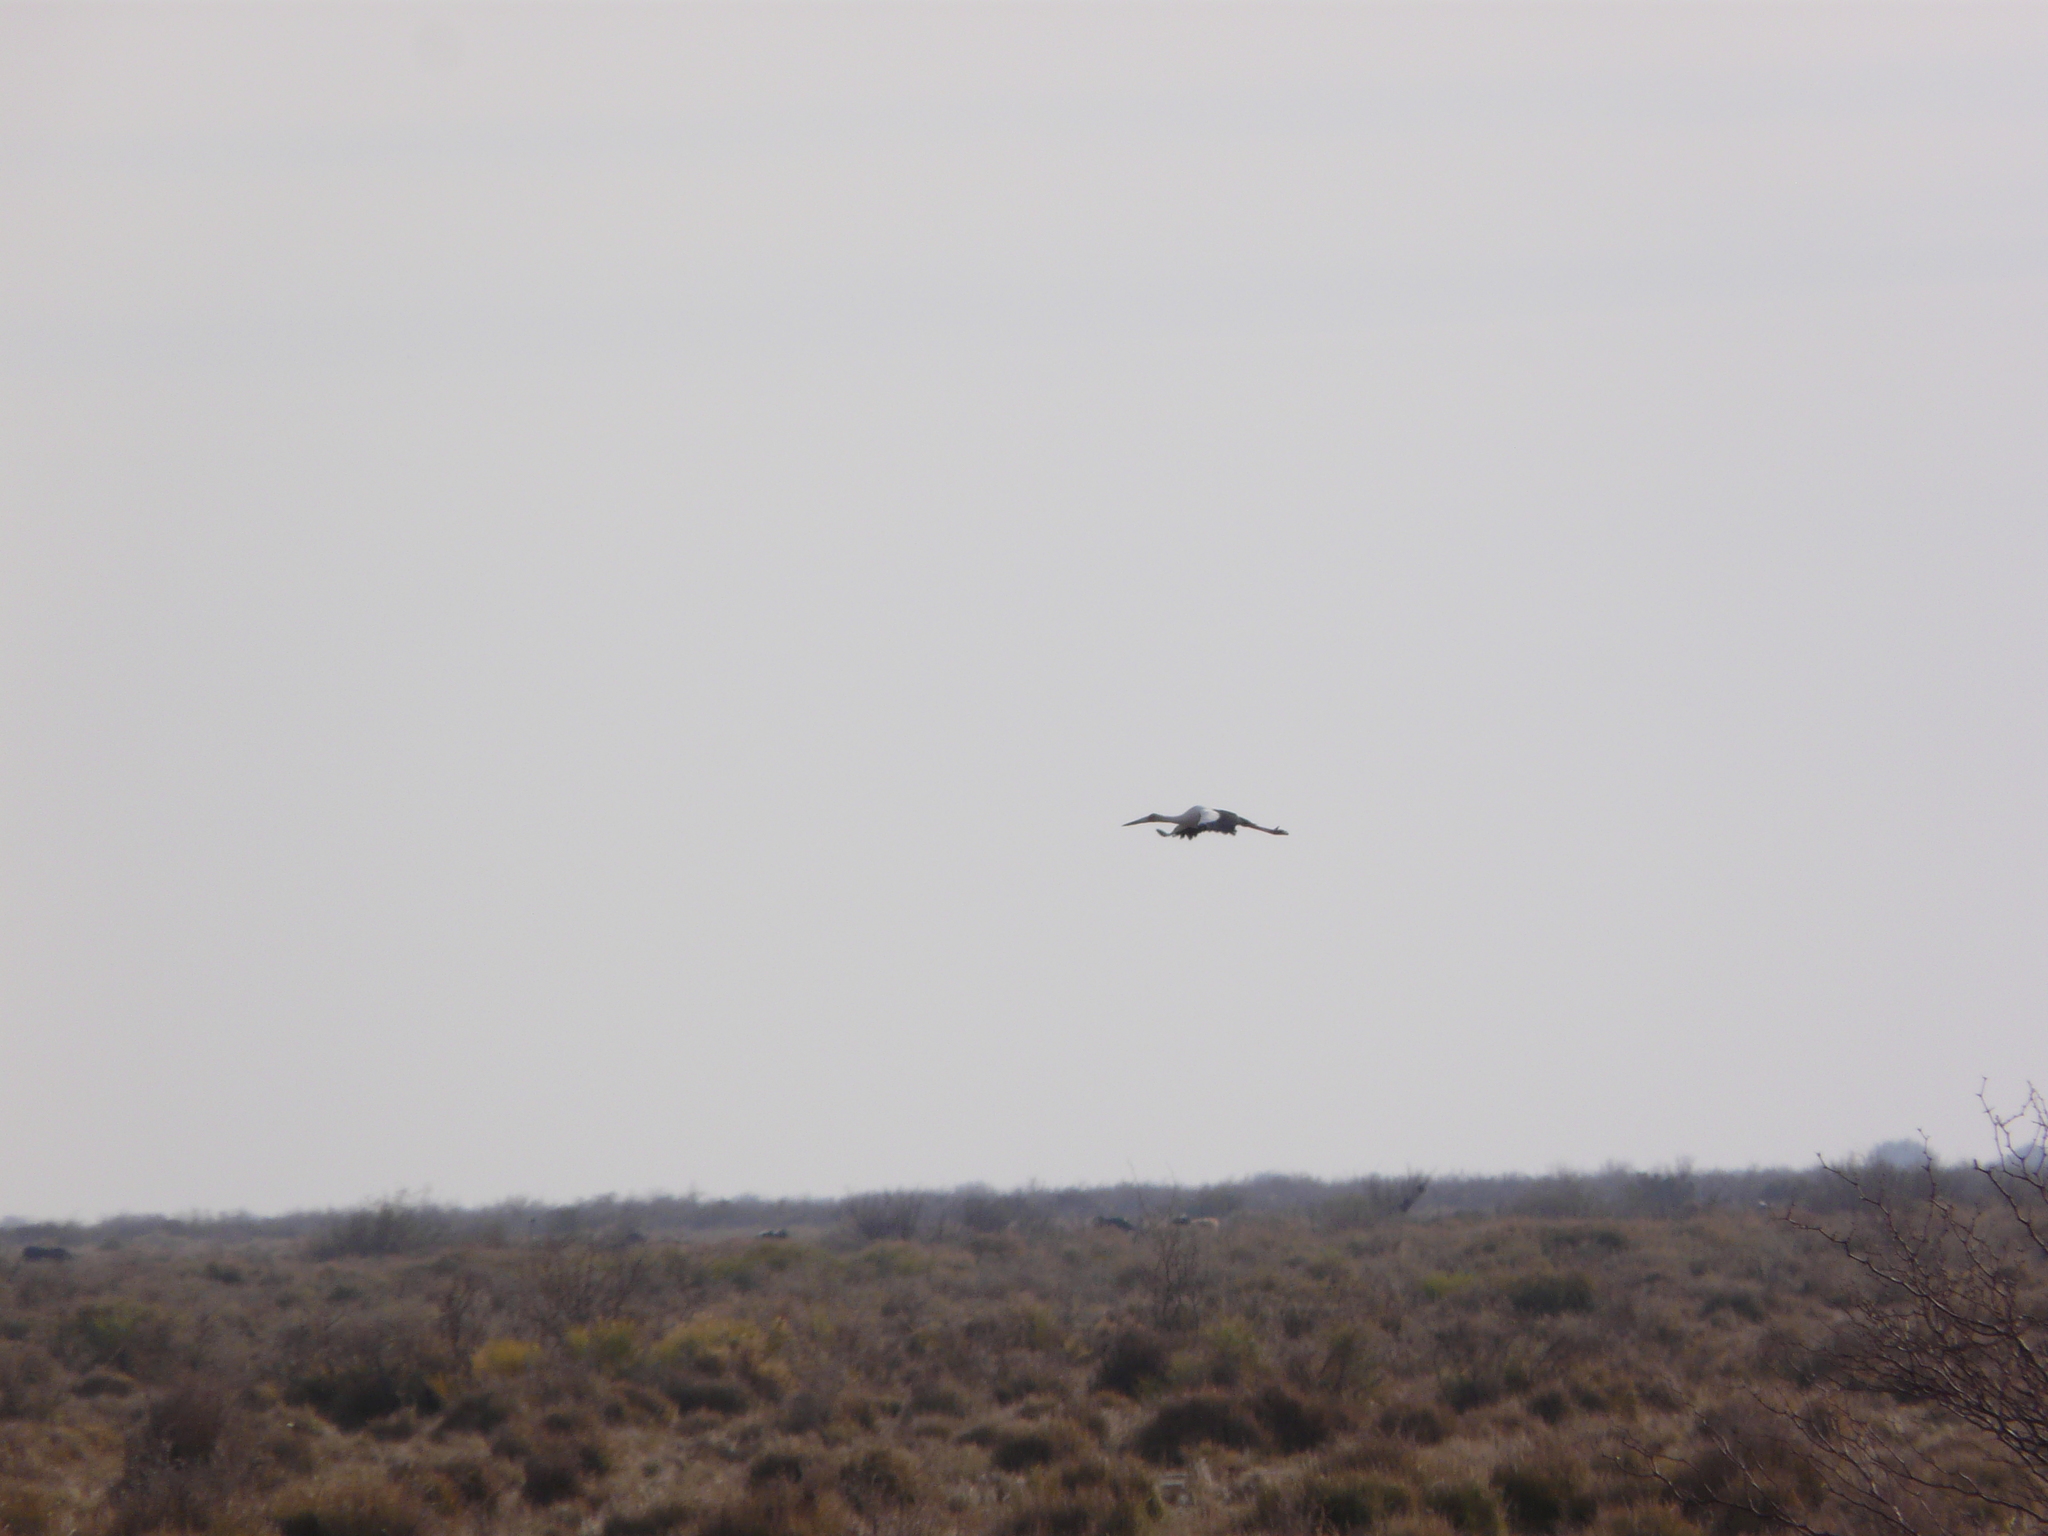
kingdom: Animalia
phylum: Chordata
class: Aves
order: Ciconiiformes
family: Ciconiidae
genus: Ciconia
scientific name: Ciconia maguari
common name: Maguari stork
